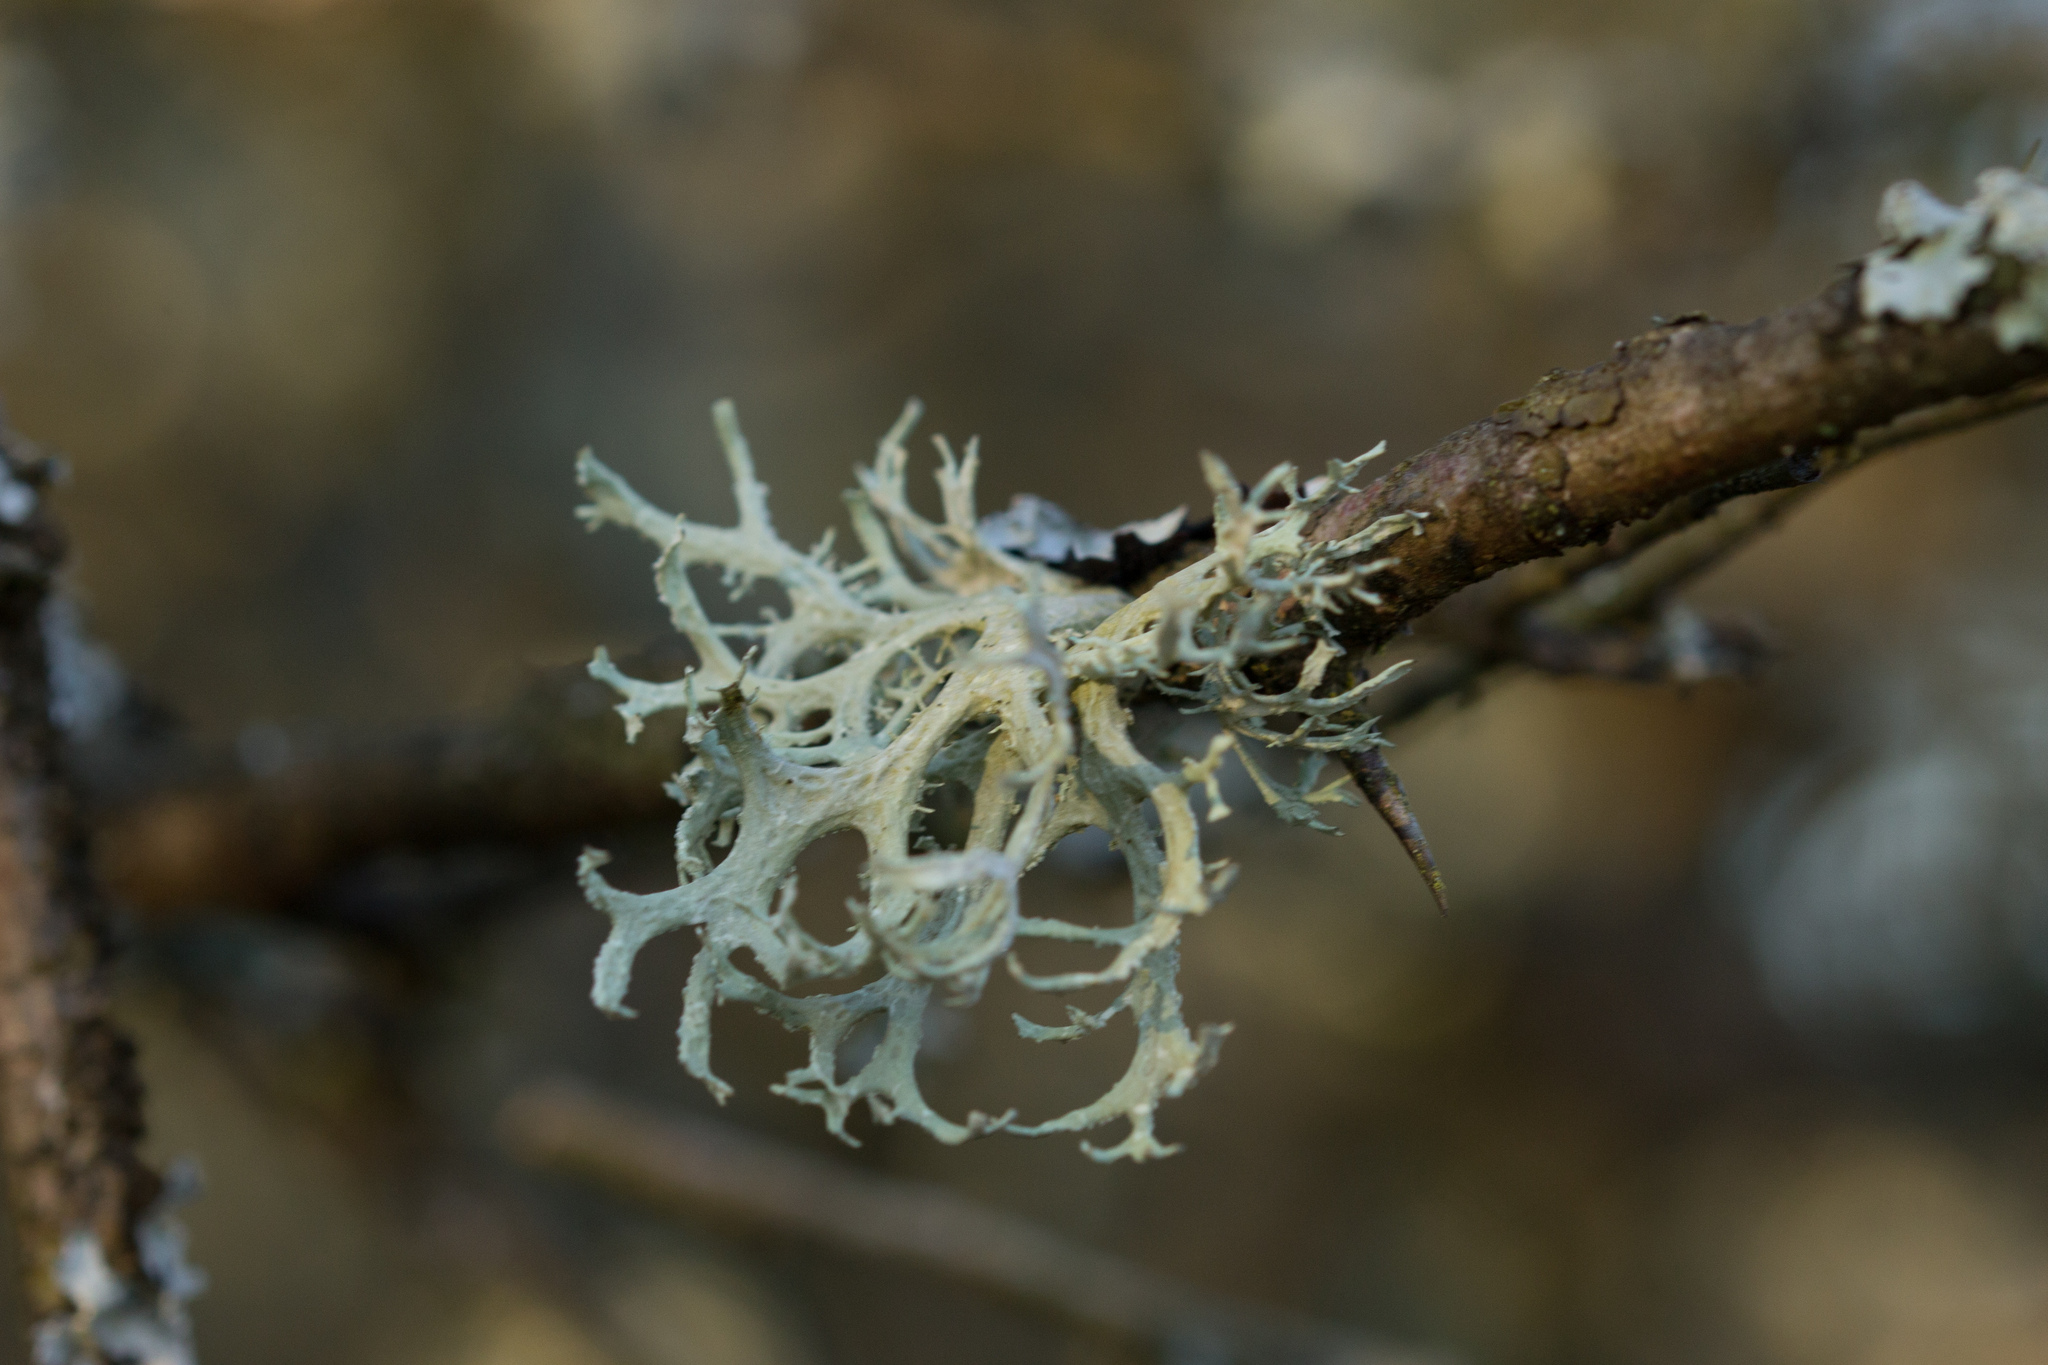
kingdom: Fungi
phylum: Ascomycota
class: Lecanoromycetes
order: Lecanorales
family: Parmeliaceae
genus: Evernia
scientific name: Evernia prunastri
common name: Oak moss
